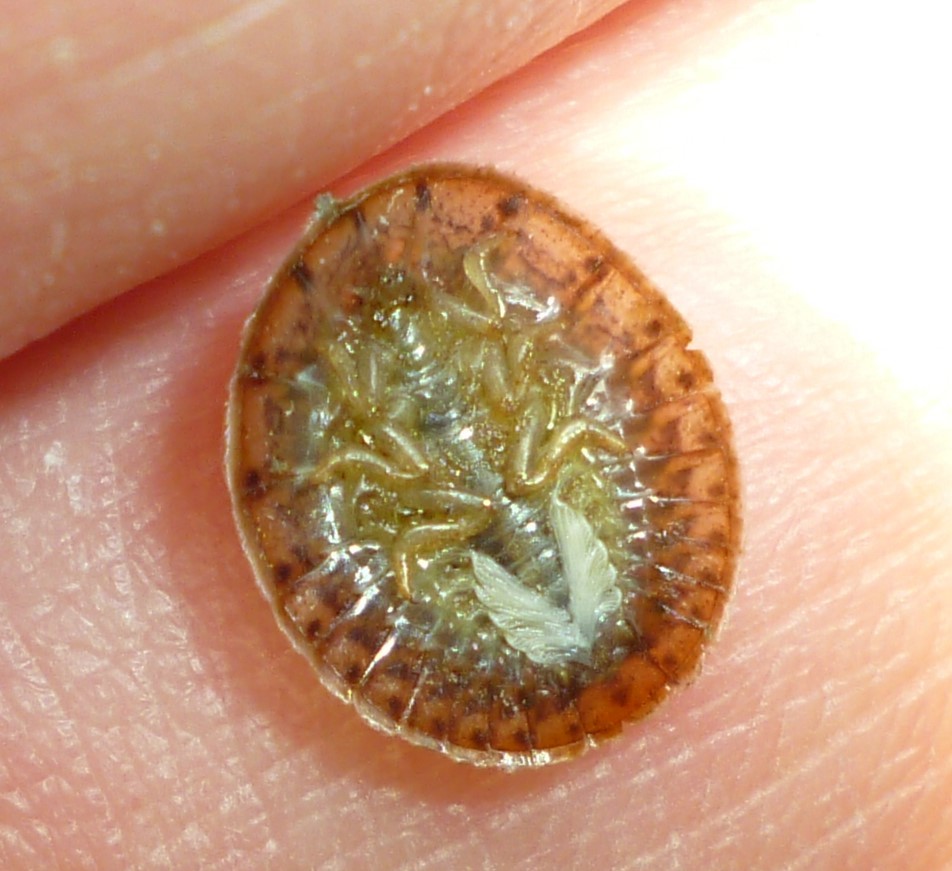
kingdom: Animalia
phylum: Arthropoda
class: Insecta
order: Coleoptera
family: Psephenidae
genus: Psephenus
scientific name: Psephenus herricki
